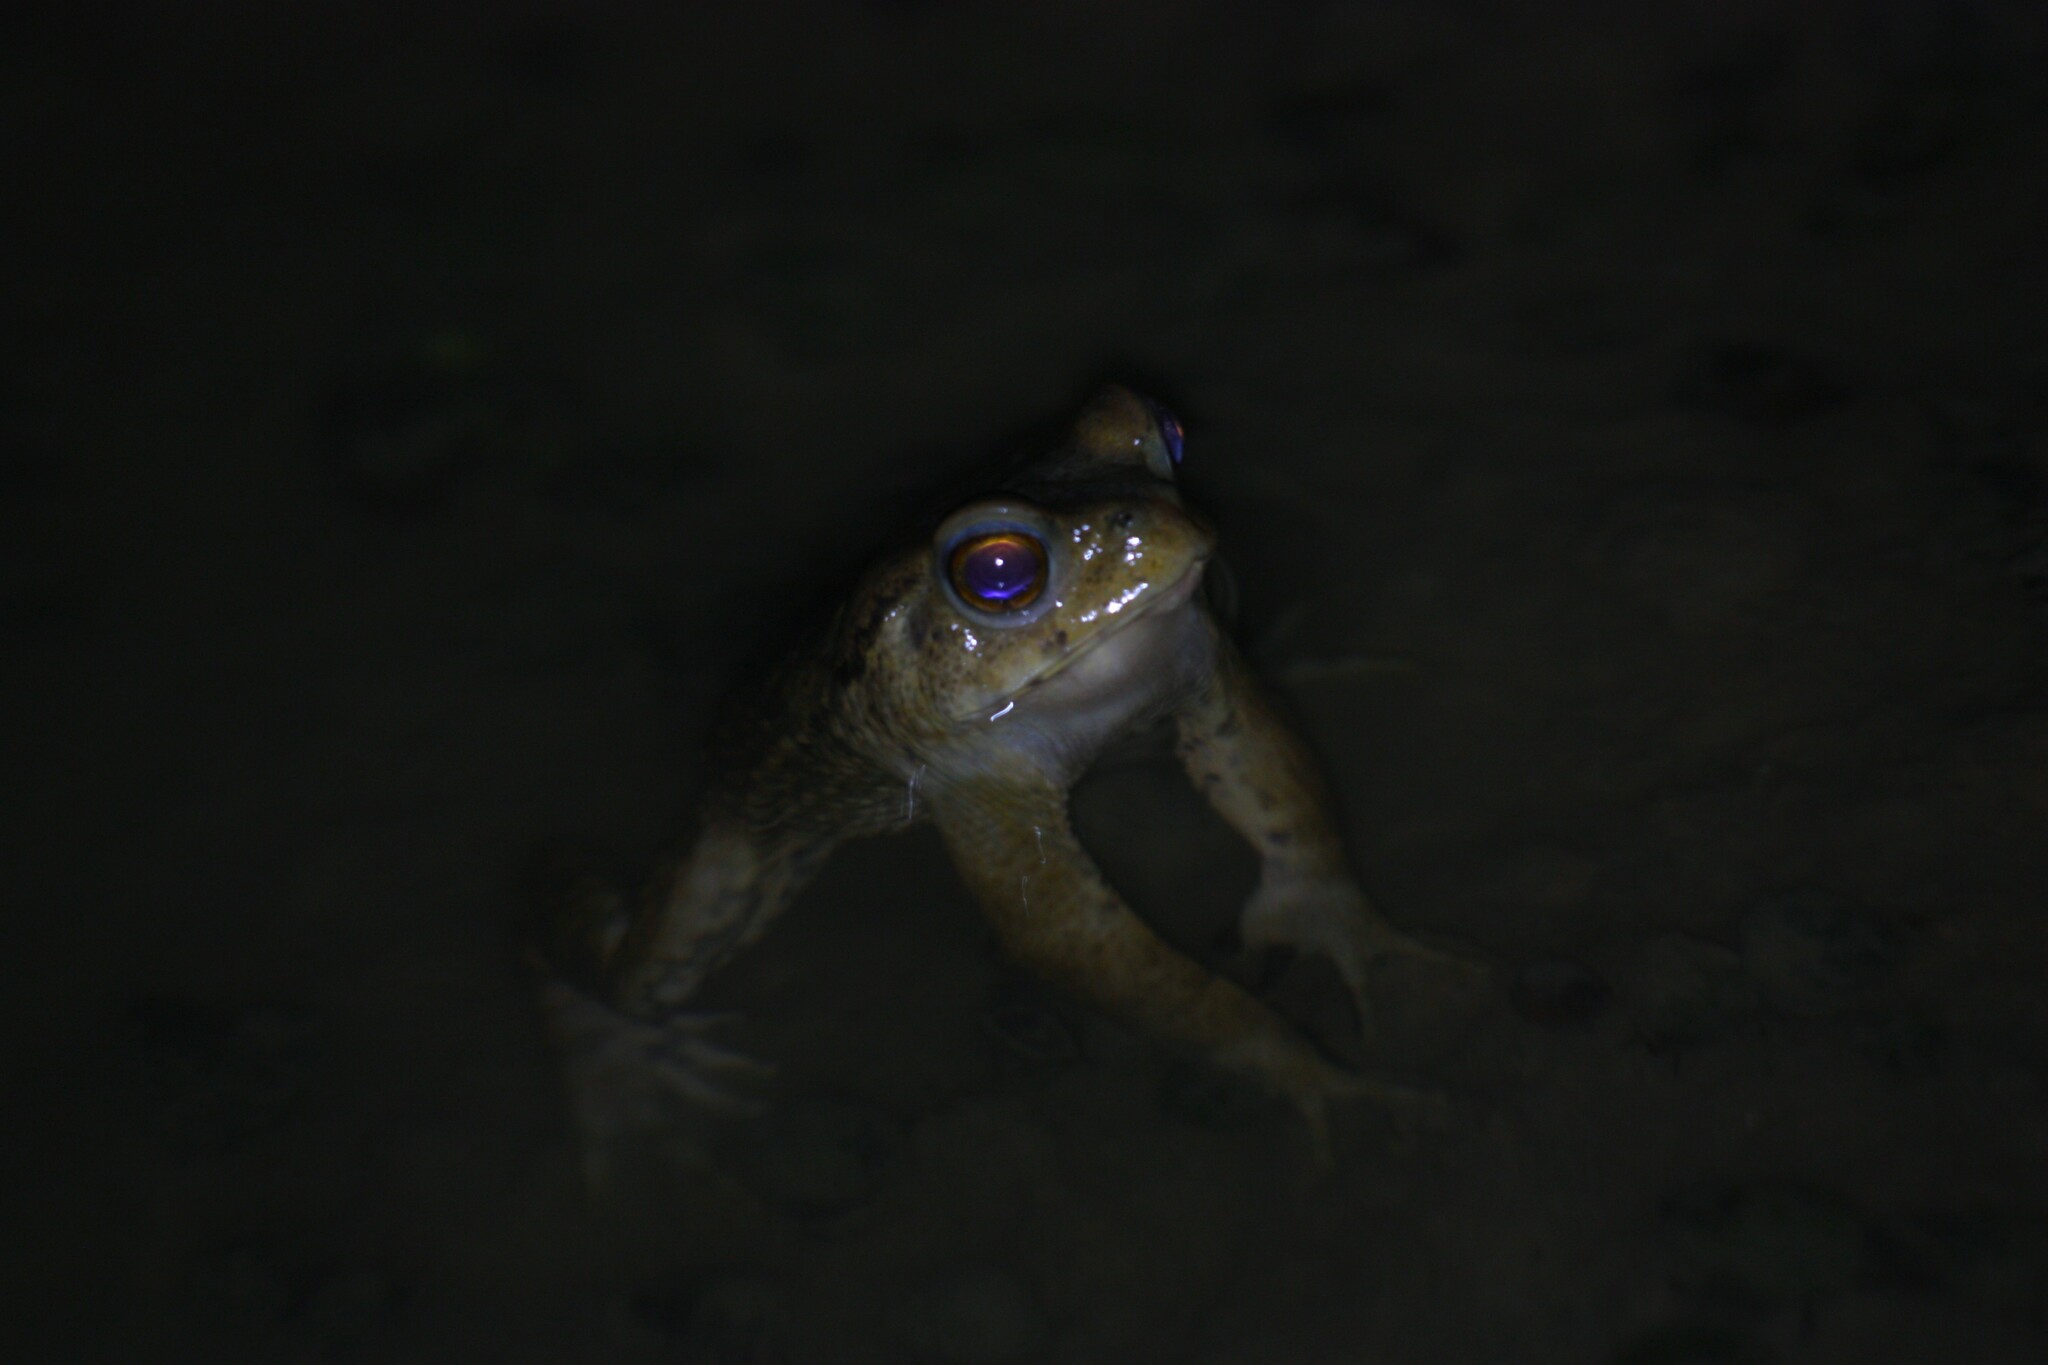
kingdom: Animalia
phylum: Chordata
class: Amphibia
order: Anura
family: Bufonidae
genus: Bufo
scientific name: Bufo bankorensis
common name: Bankor toad
